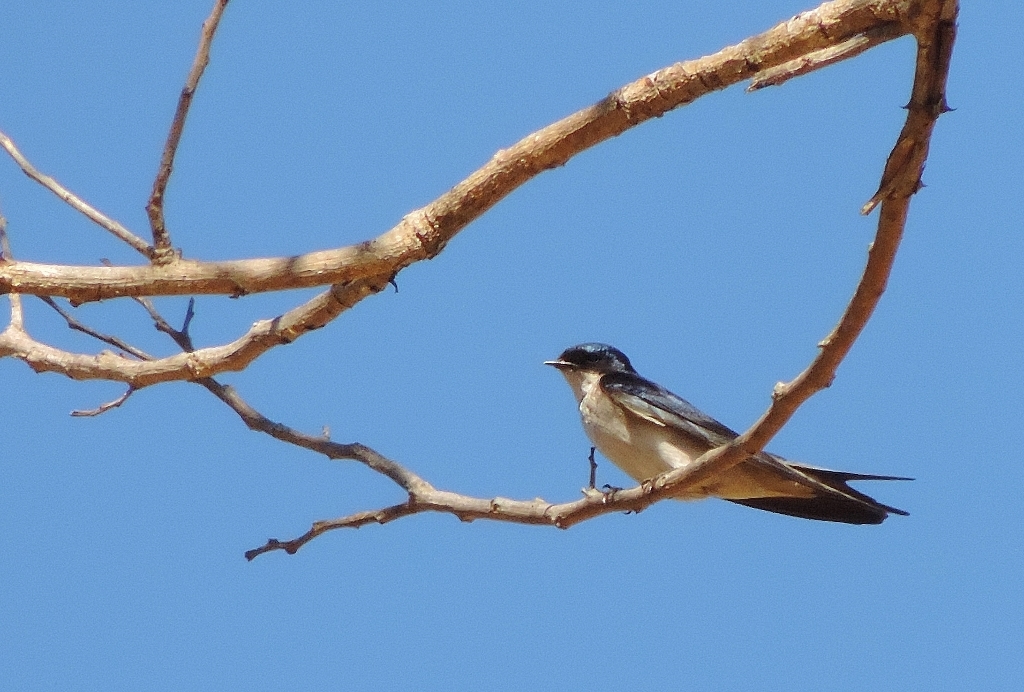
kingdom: Animalia
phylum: Chordata
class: Aves
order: Passeriformes
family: Hirundinidae
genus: Hirundo
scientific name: Hirundo dimidiata
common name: Pearl-breasted swallow
